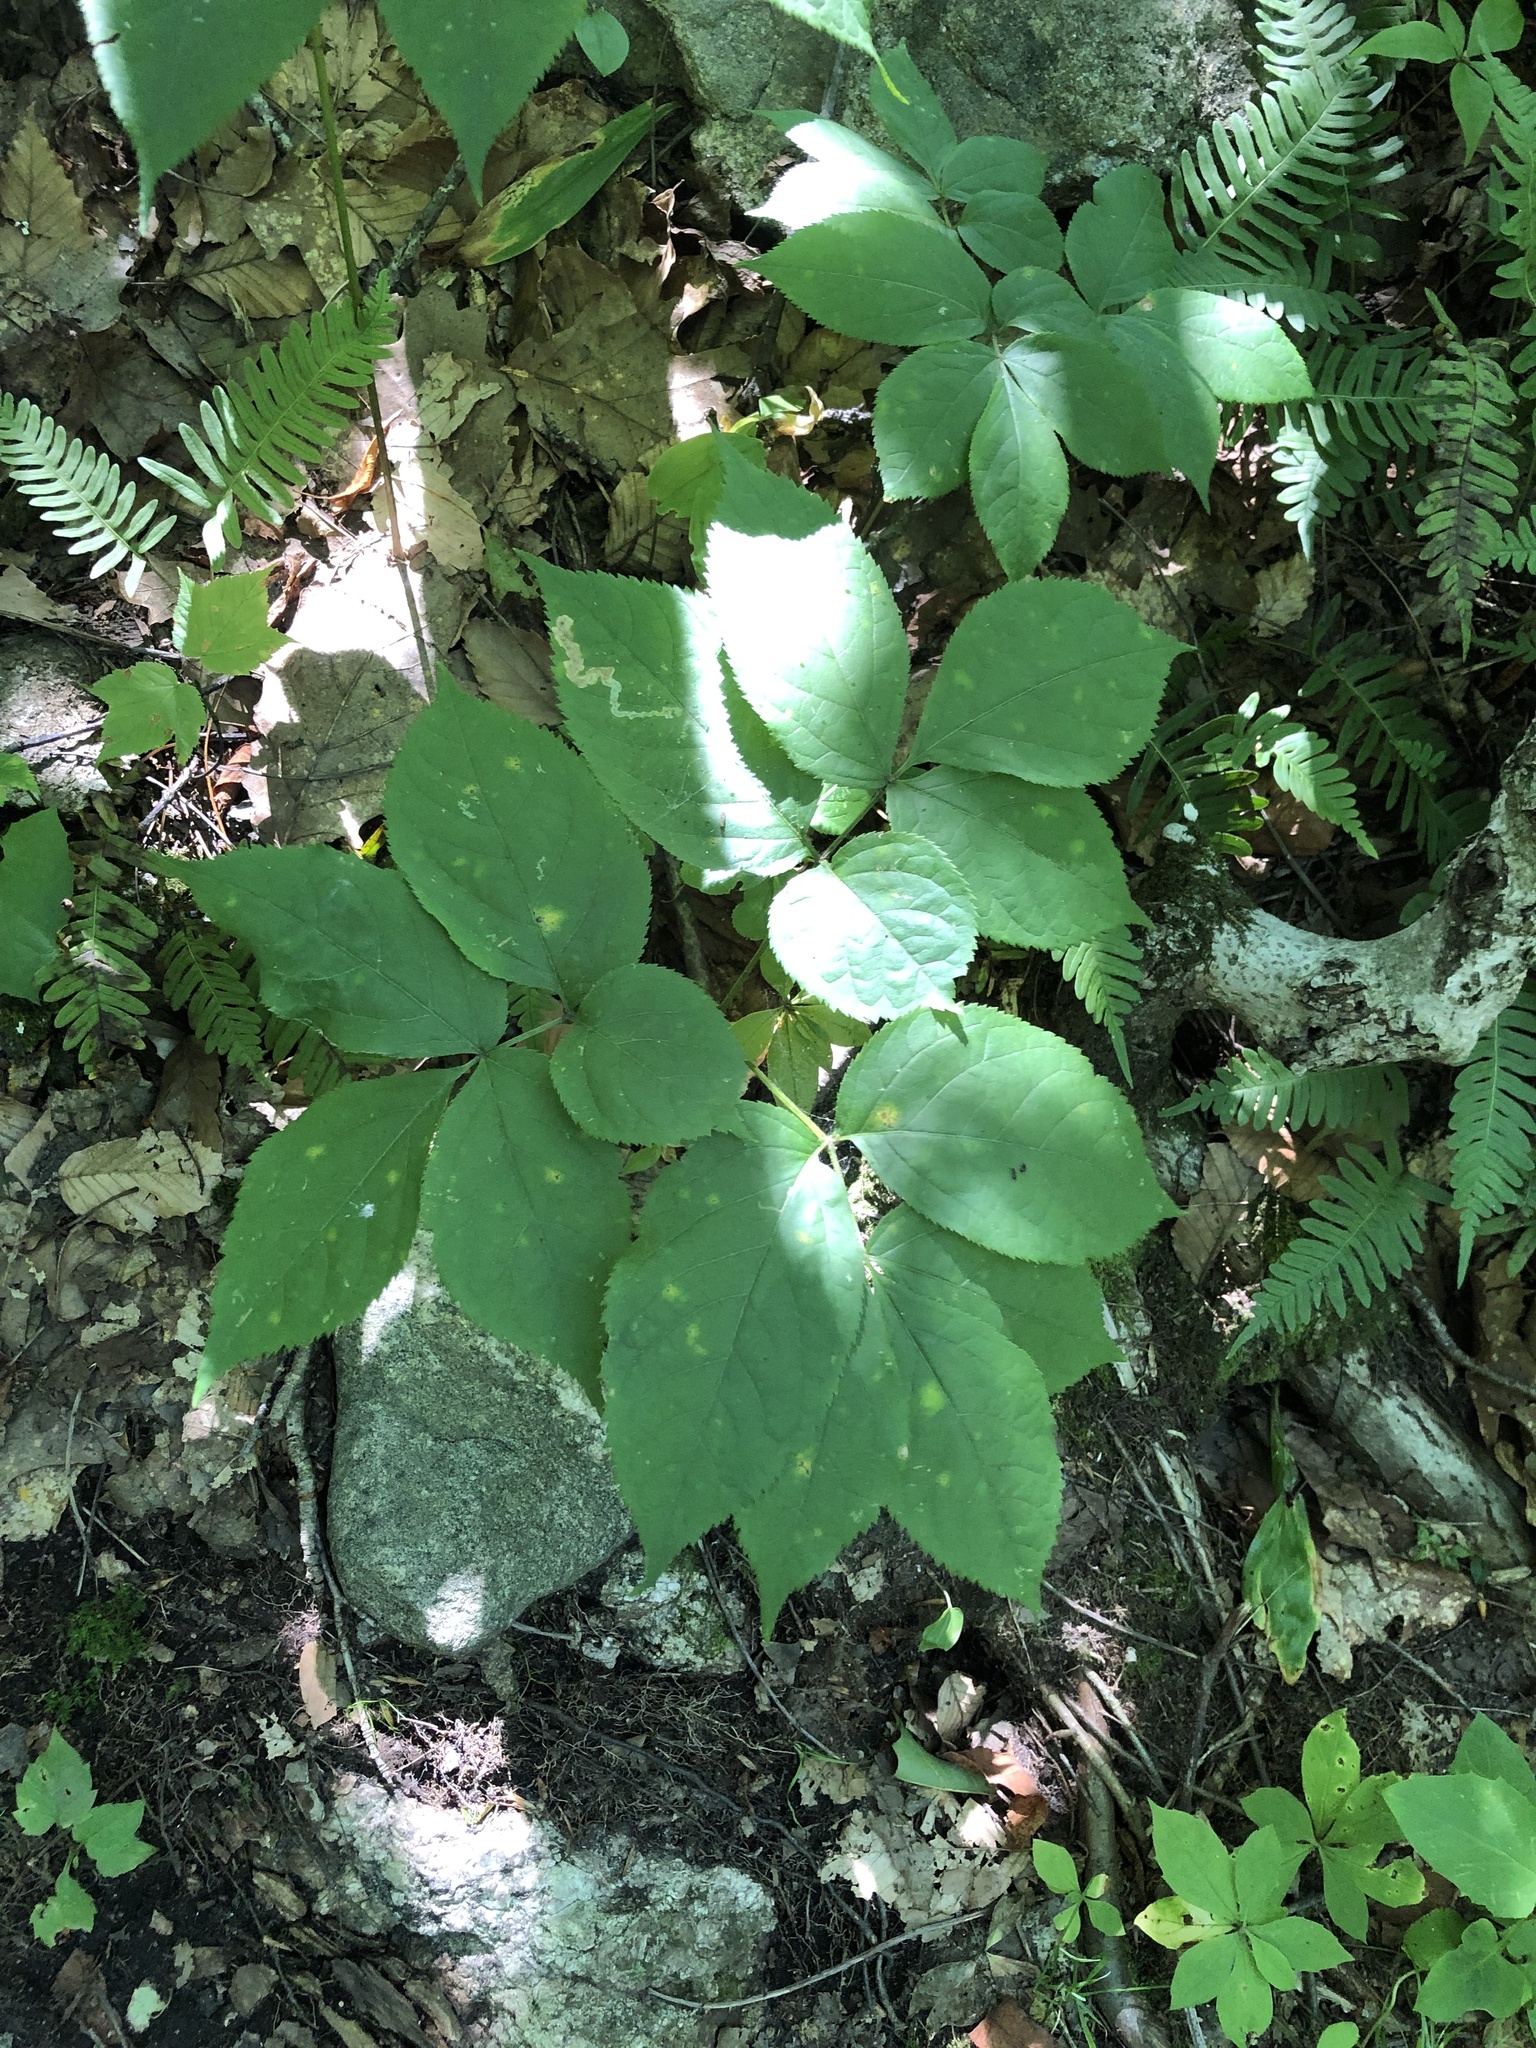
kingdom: Plantae
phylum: Tracheophyta
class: Magnoliopsida
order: Apiales
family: Araliaceae
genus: Aralia
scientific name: Aralia nudicaulis
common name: Wild sarsaparilla
